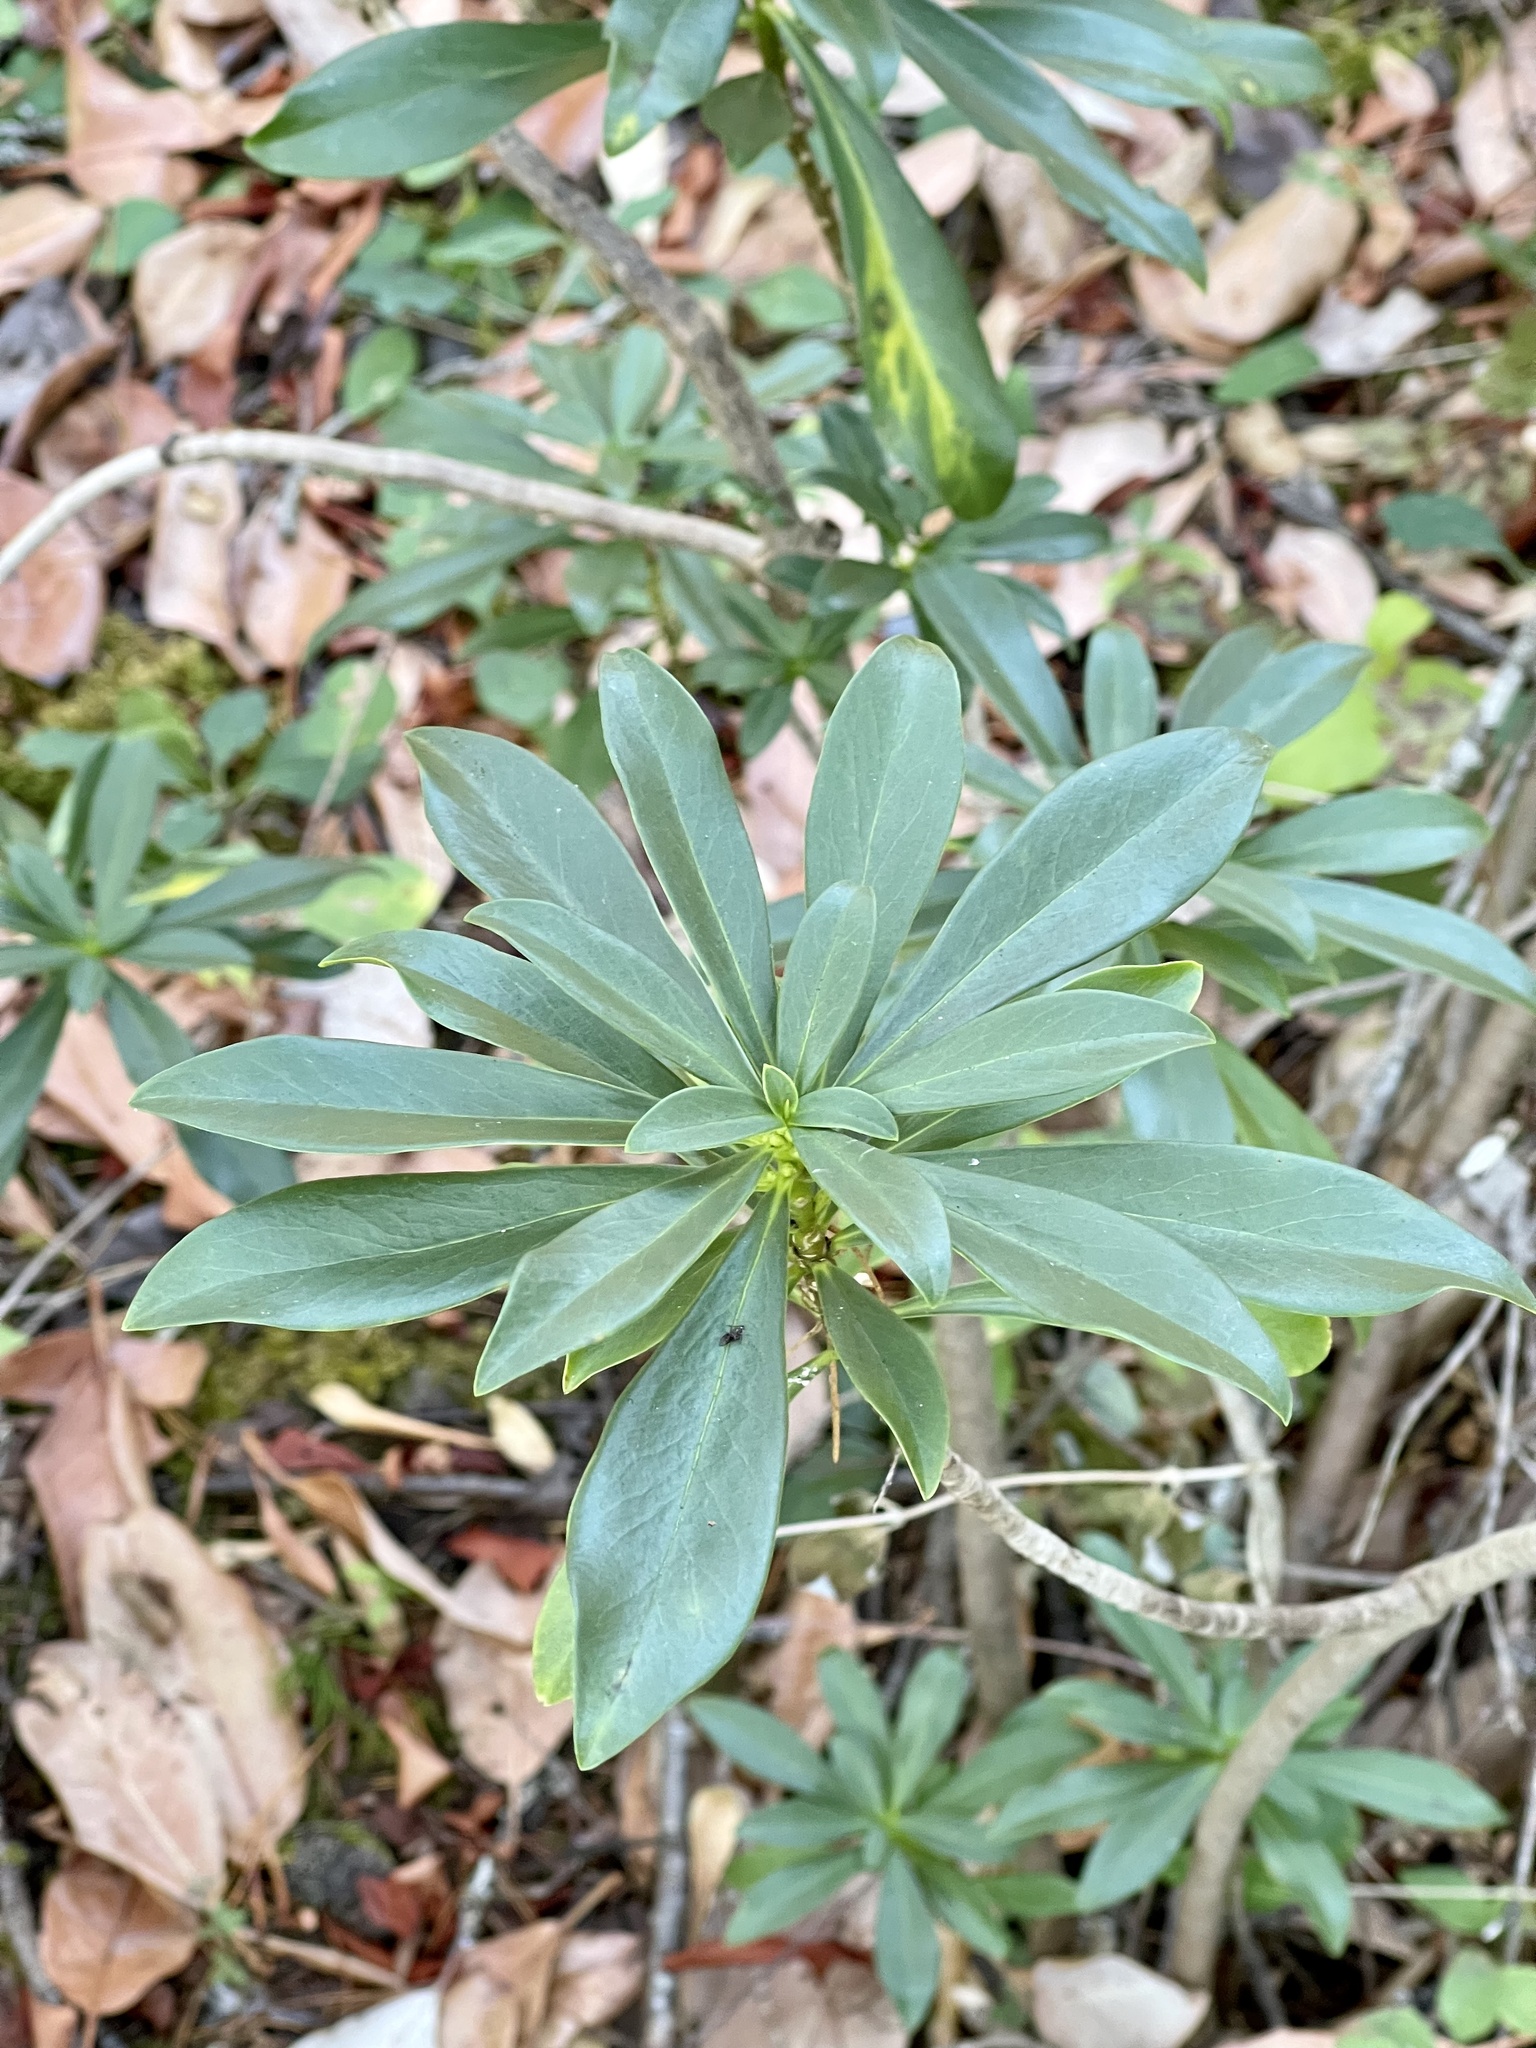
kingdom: Plantae
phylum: Tracheophyta
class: Magnoliopsida
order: Malvales
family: Thymelaeaceae
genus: Daphne
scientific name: Daphne laureola
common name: Spurge-laurel
